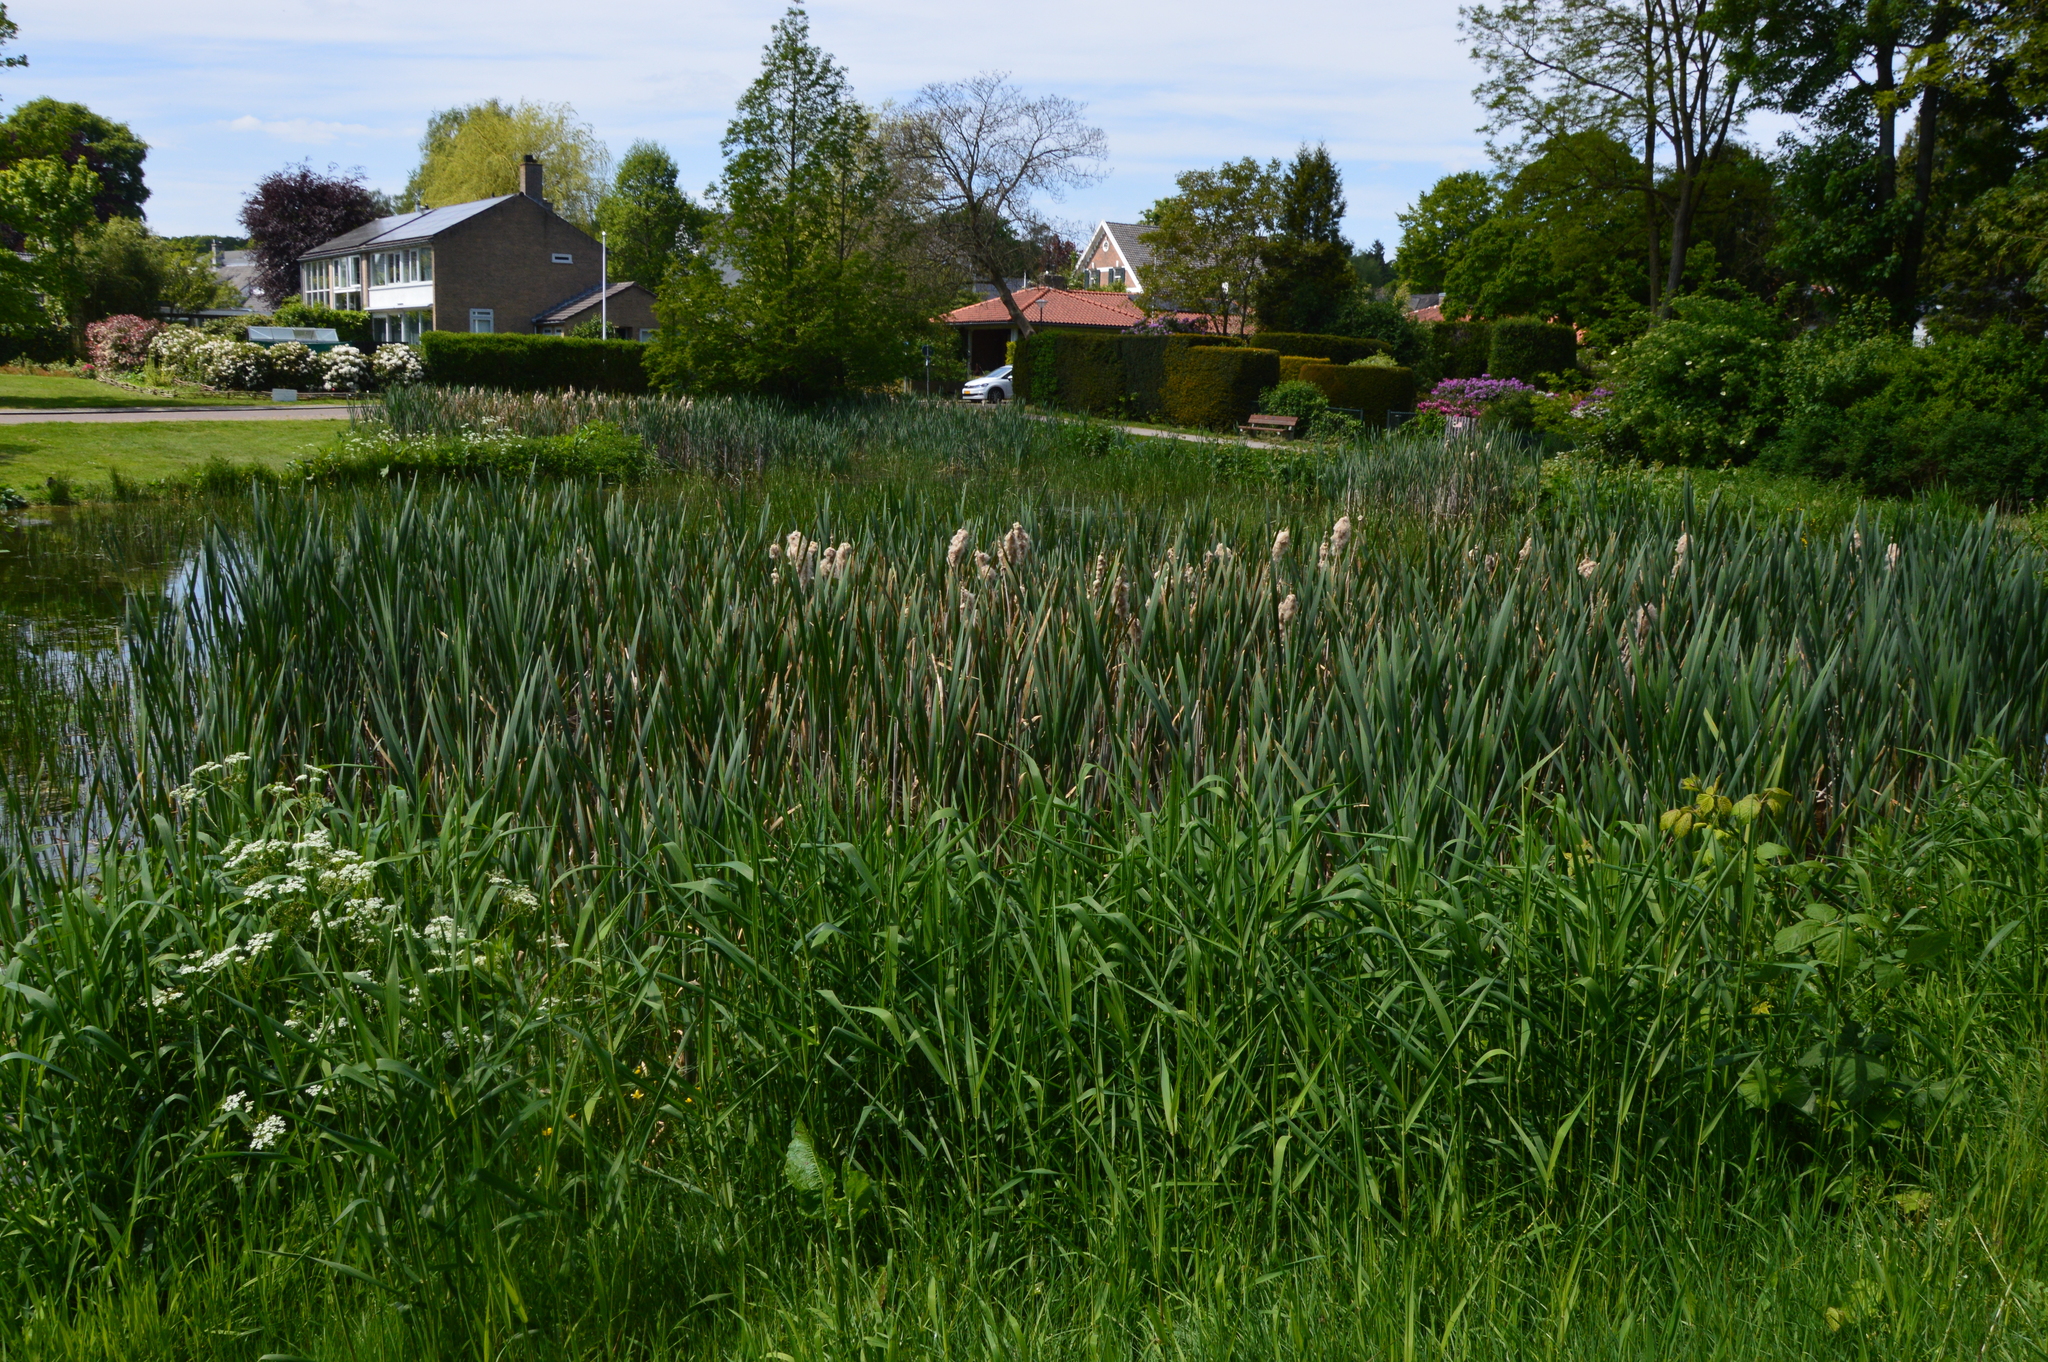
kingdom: Plantae
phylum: Tracheophyta
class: Liliopsida
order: Poales
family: Typhaceae
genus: Typha
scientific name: Typha
